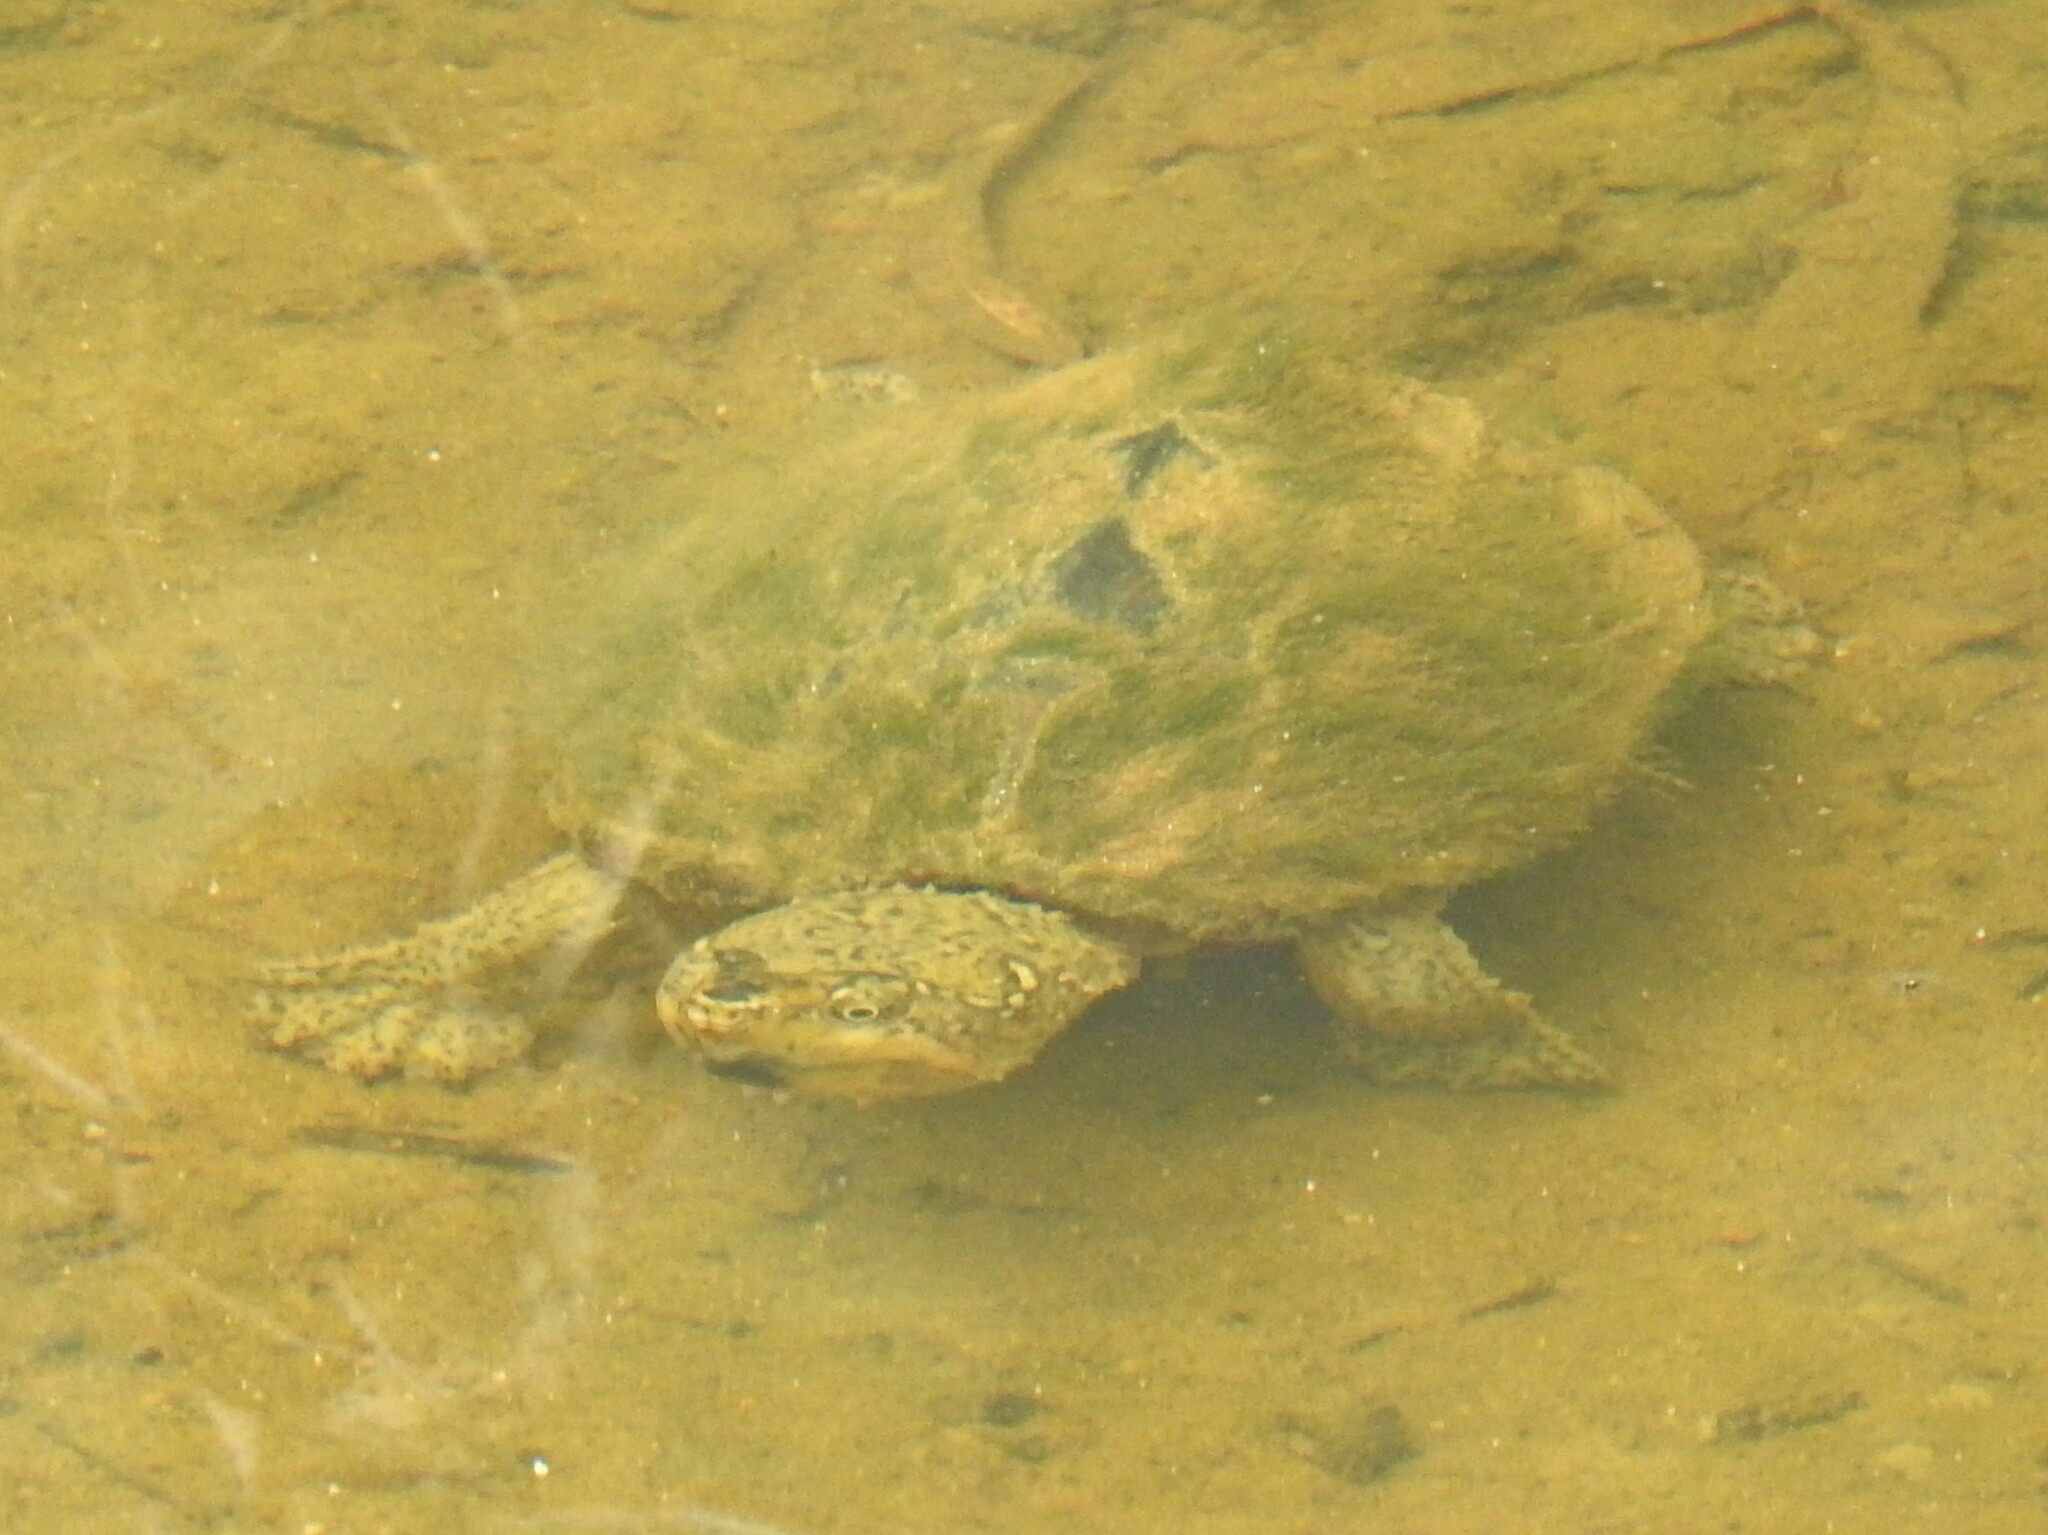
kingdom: Animalia
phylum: Chordata
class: Testudines
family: Kinosternidae
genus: Sternotherus
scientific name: Sternotherus odoratus
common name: Common musk turtle
